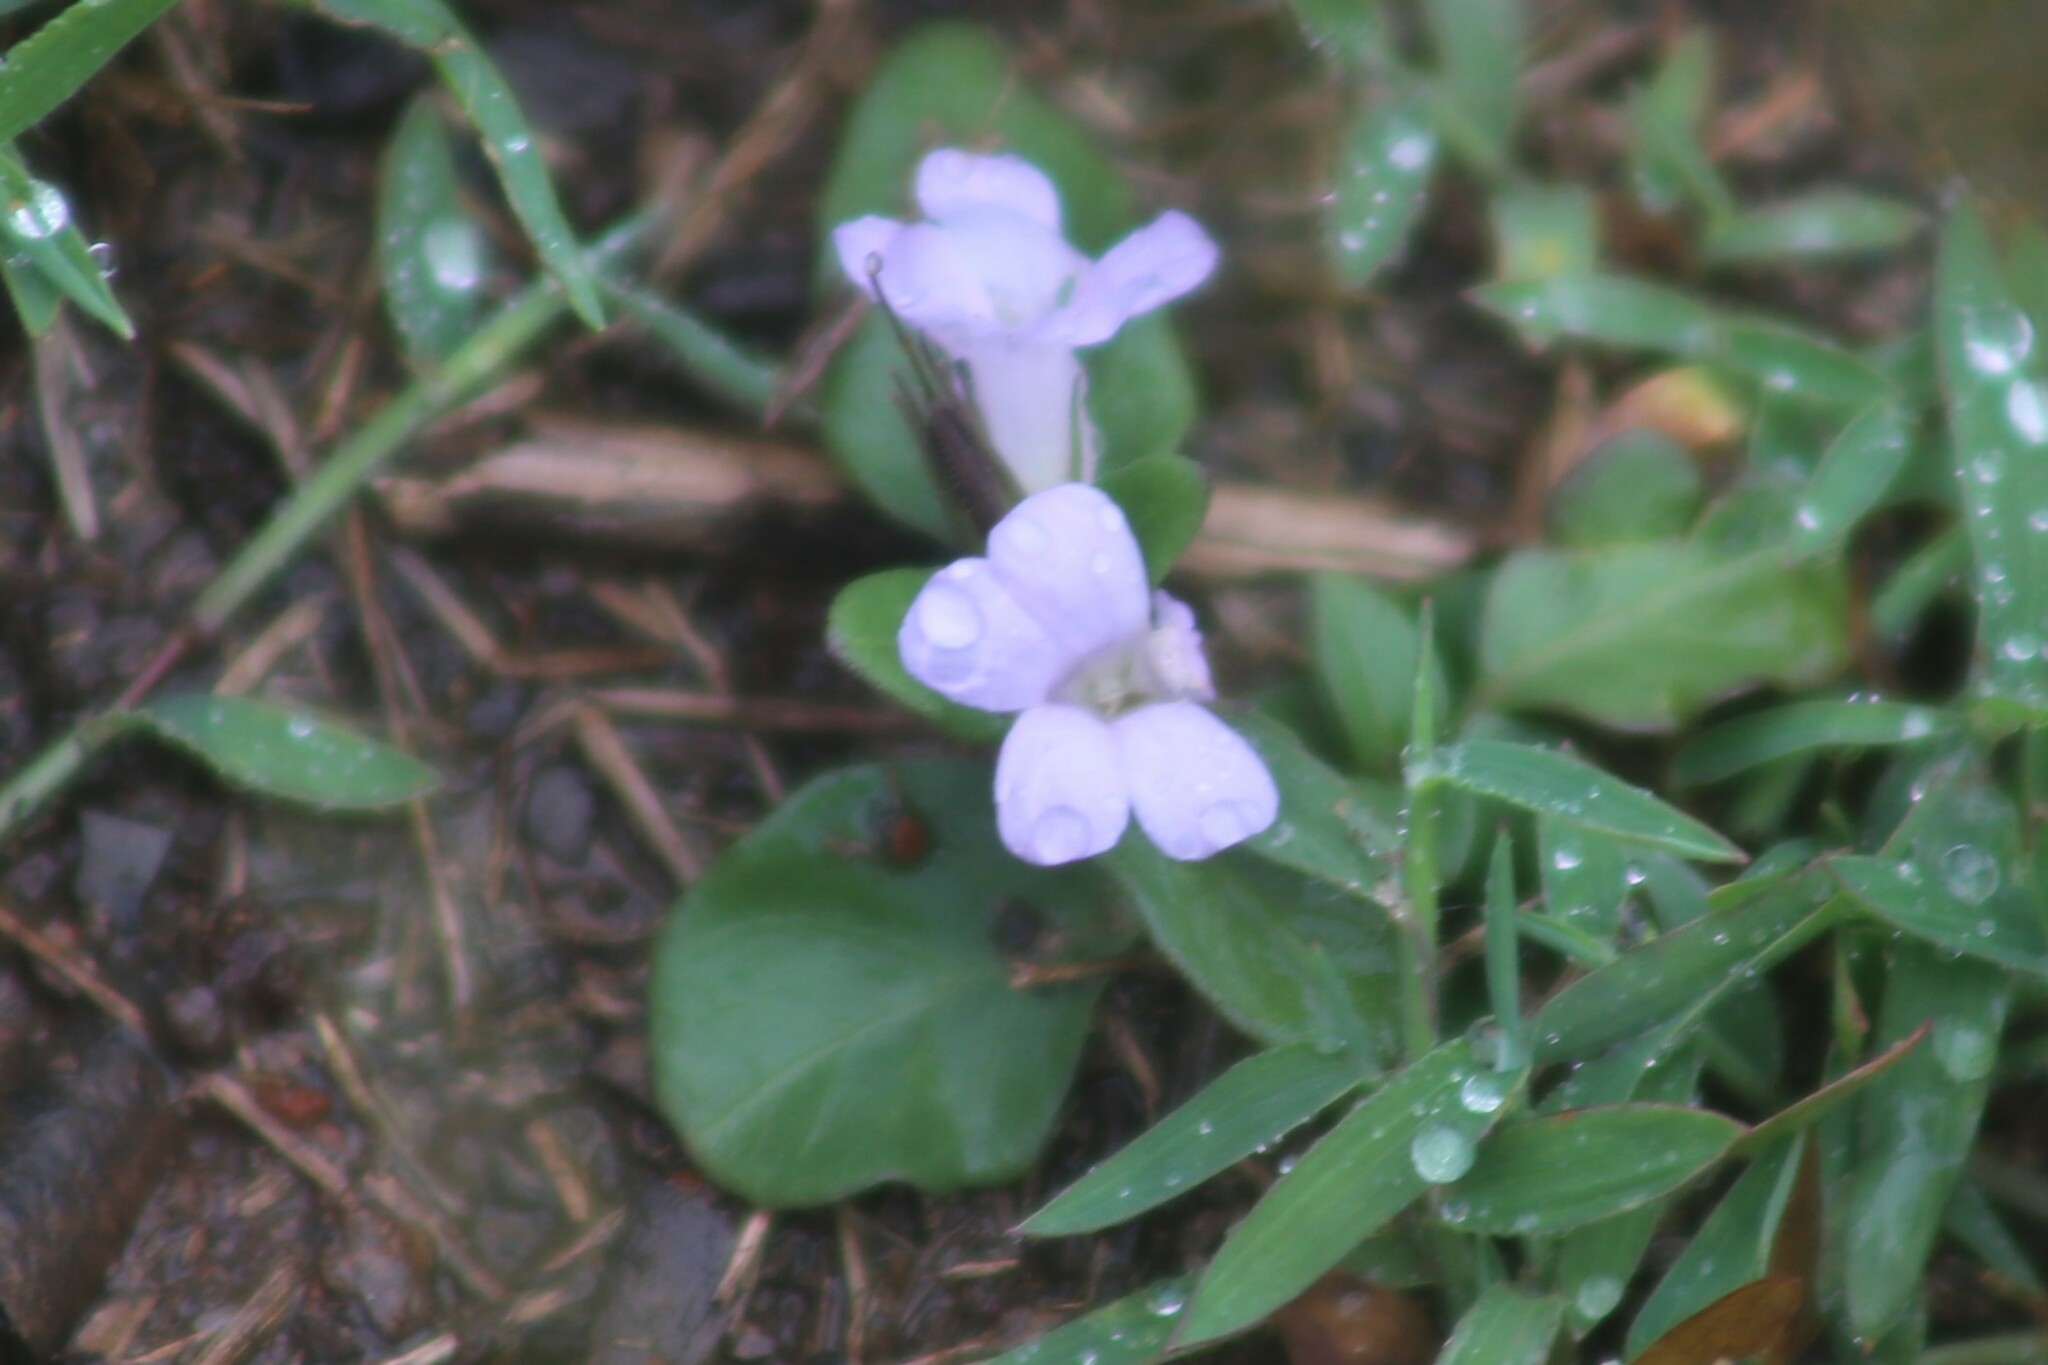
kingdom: Plantae
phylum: Tracheophyta
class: Magnoliopsida
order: Lamiales
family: Acanthaceae
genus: Brunoniella
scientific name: Brunoniella australis
